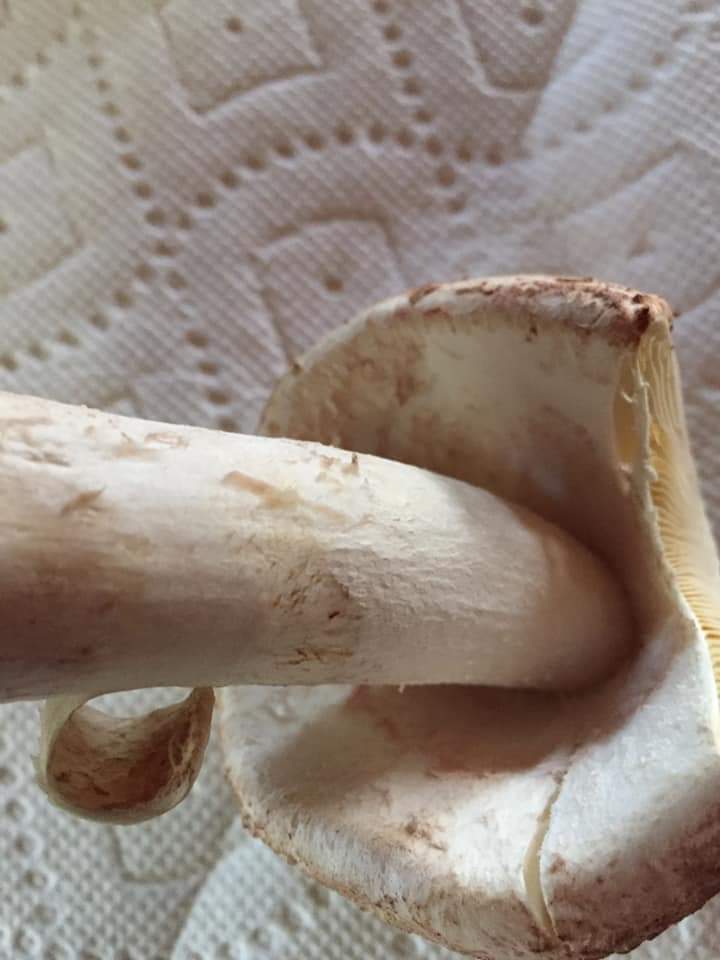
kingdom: Fungi
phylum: Basidiomycota
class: Agaricomycetes
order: Agaricales
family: Amanitaceae
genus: Amanita
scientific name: Amanita rubescens
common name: Blusher
